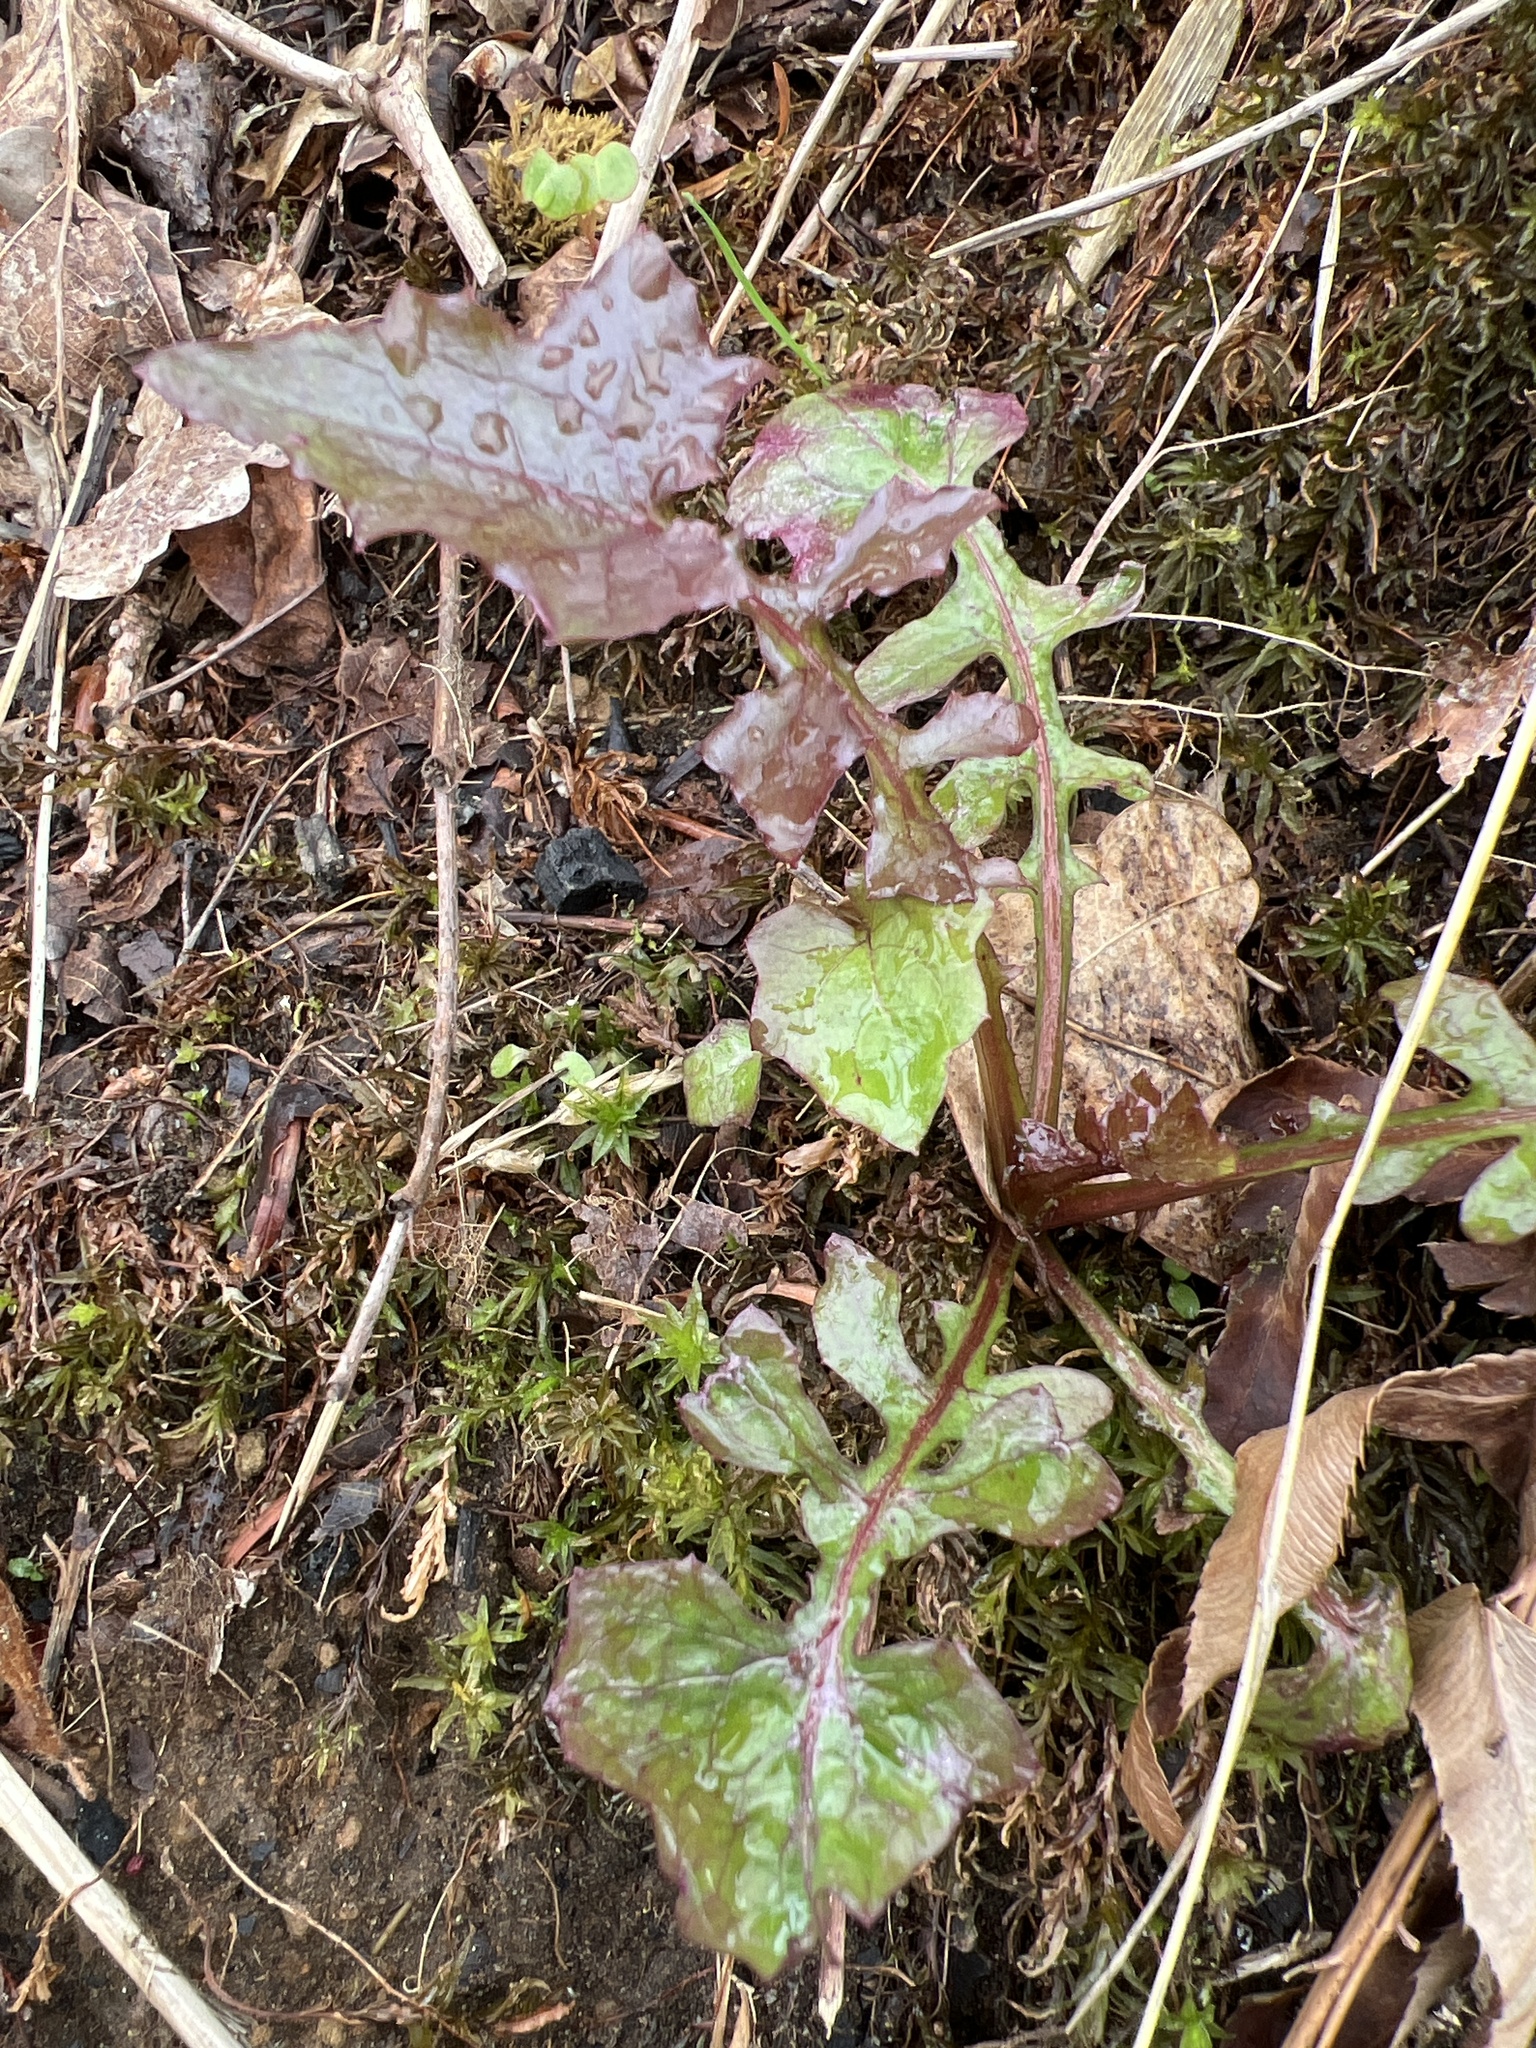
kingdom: Plantae
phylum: Tracheophyta
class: Magnoliopsida
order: Asterales
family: Asteraceae
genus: Mycelis
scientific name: Mycelis muralis
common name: Wall lettuce
